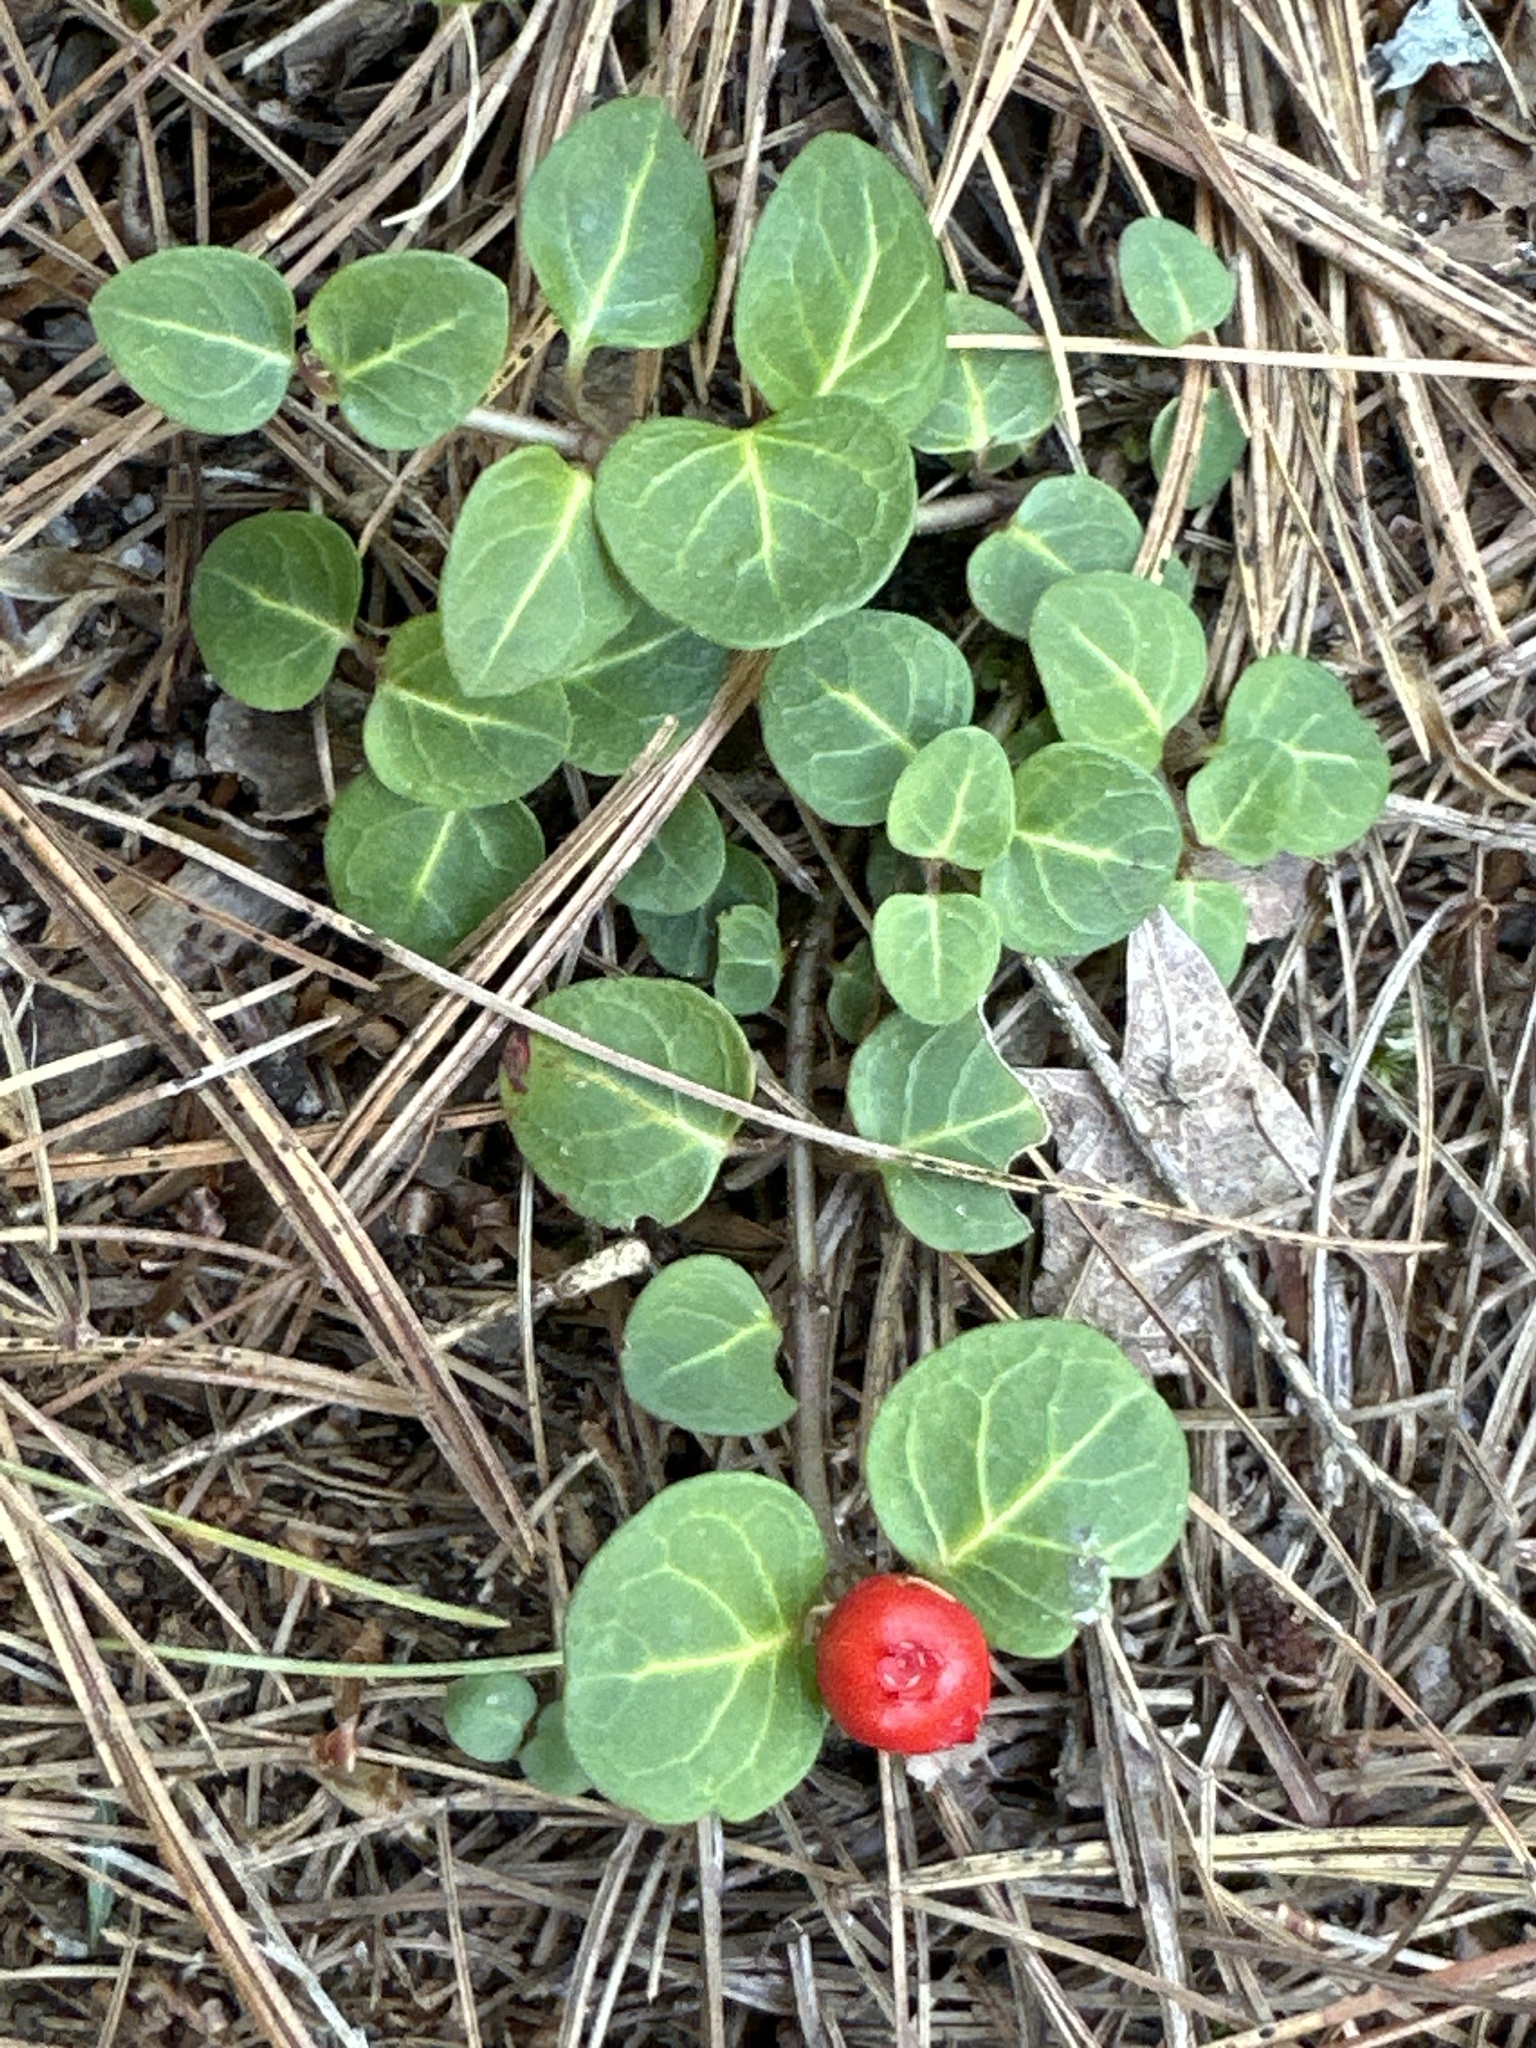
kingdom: Plantae
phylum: Tracheophyta
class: Magnoliopsida
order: Gentianales
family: Rubiaceae
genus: Mitchella
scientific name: Mitchella repens
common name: Partridge-berry
